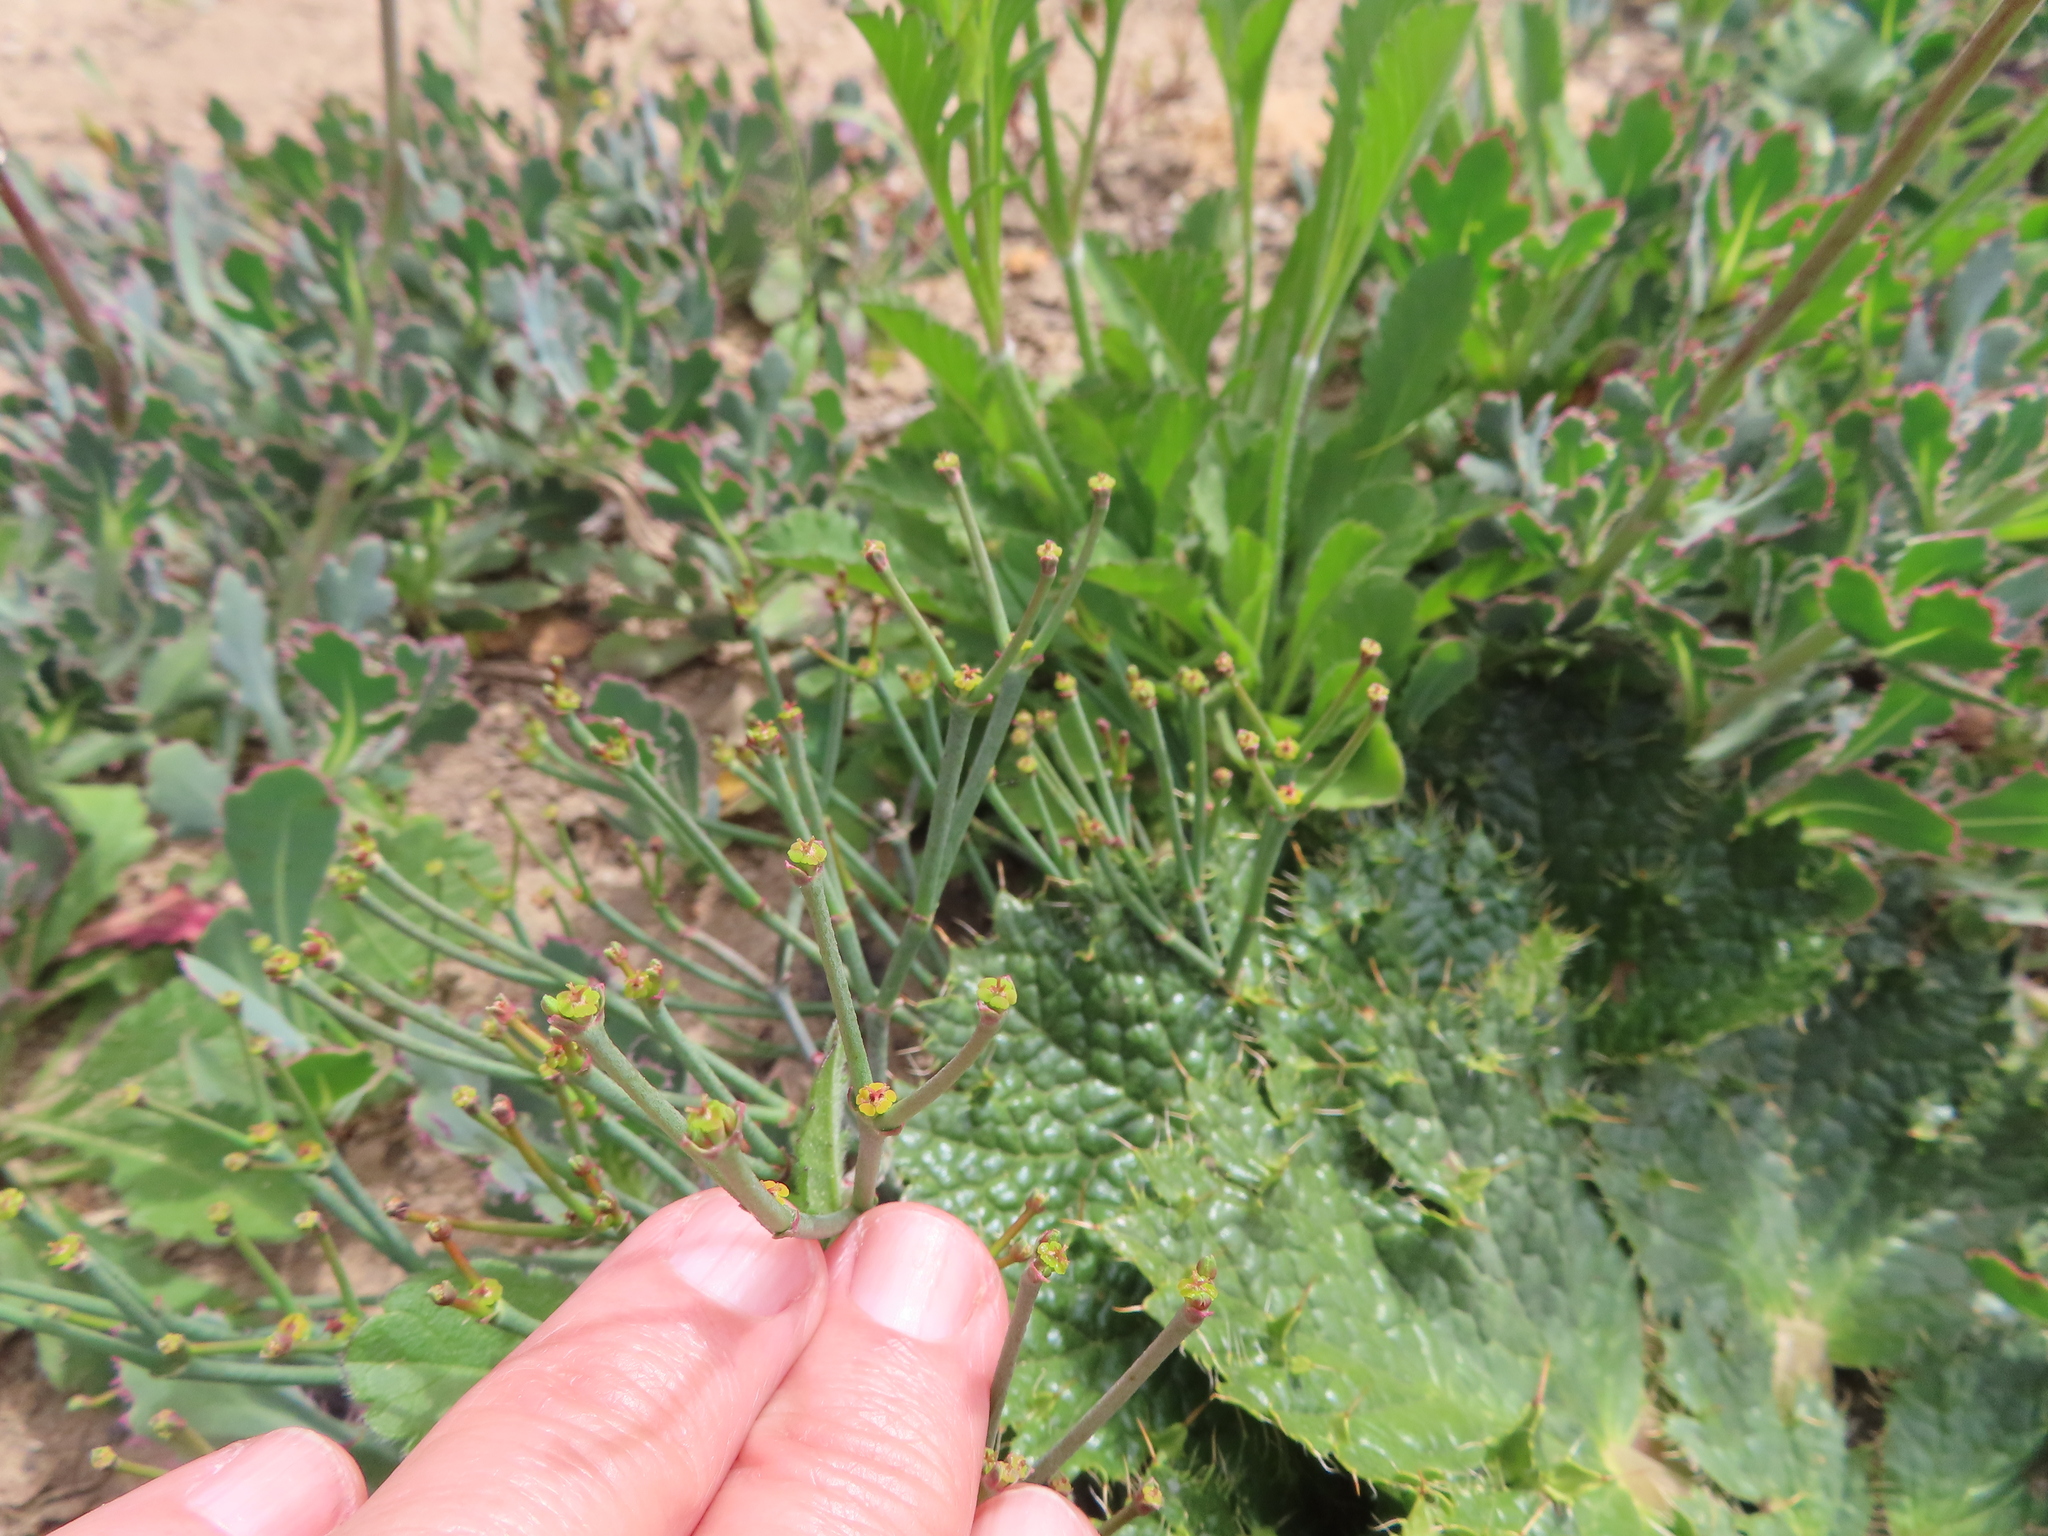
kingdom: Plantae
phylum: Tracheophyta
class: Magnoliopsida
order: Malpighiales
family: Euphorbiaceae
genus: Euphorbia
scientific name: Euphorbia tenax
